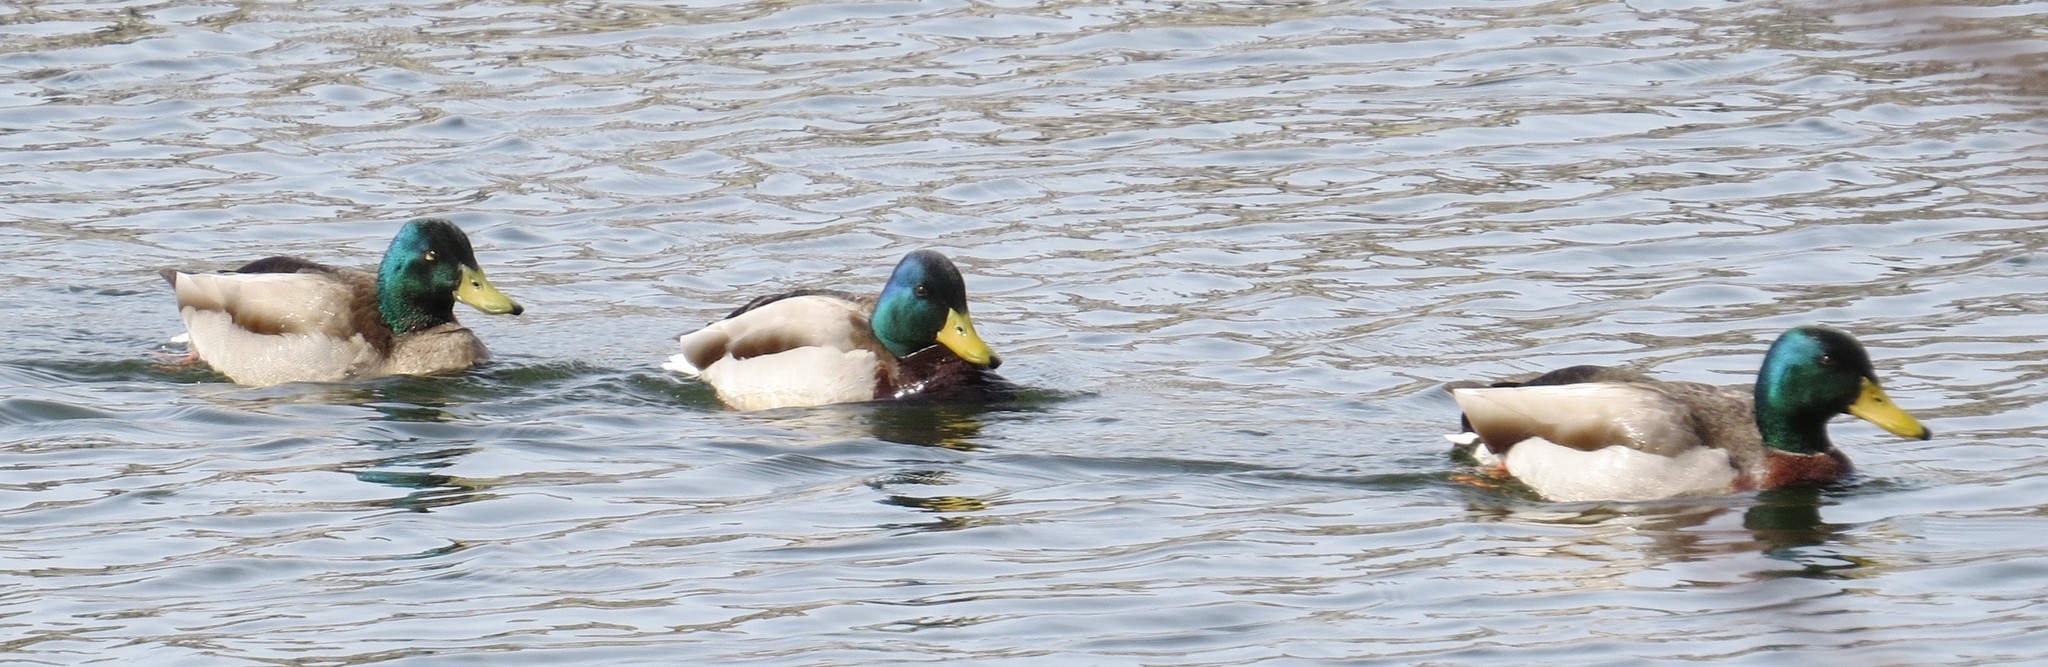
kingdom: Animalia
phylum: Chordata
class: Aves
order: Anseriformes
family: Anatidae
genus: Anas
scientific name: Anas platyrhynchos
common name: Mallard
